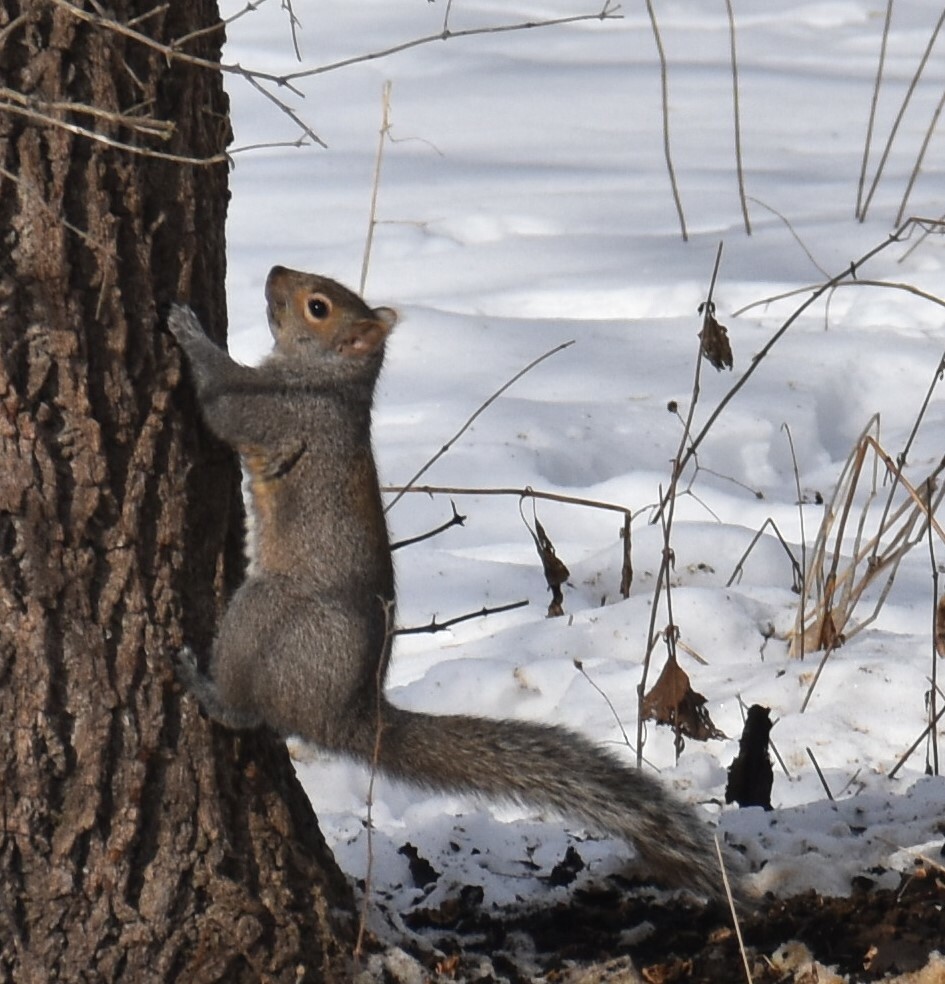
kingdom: Animalia
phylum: Chordata
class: Mammalia
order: Rodentia
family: Sciuridae
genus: Sciurus
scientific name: Sciurus carolinensis
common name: Eastern gray squirrel
